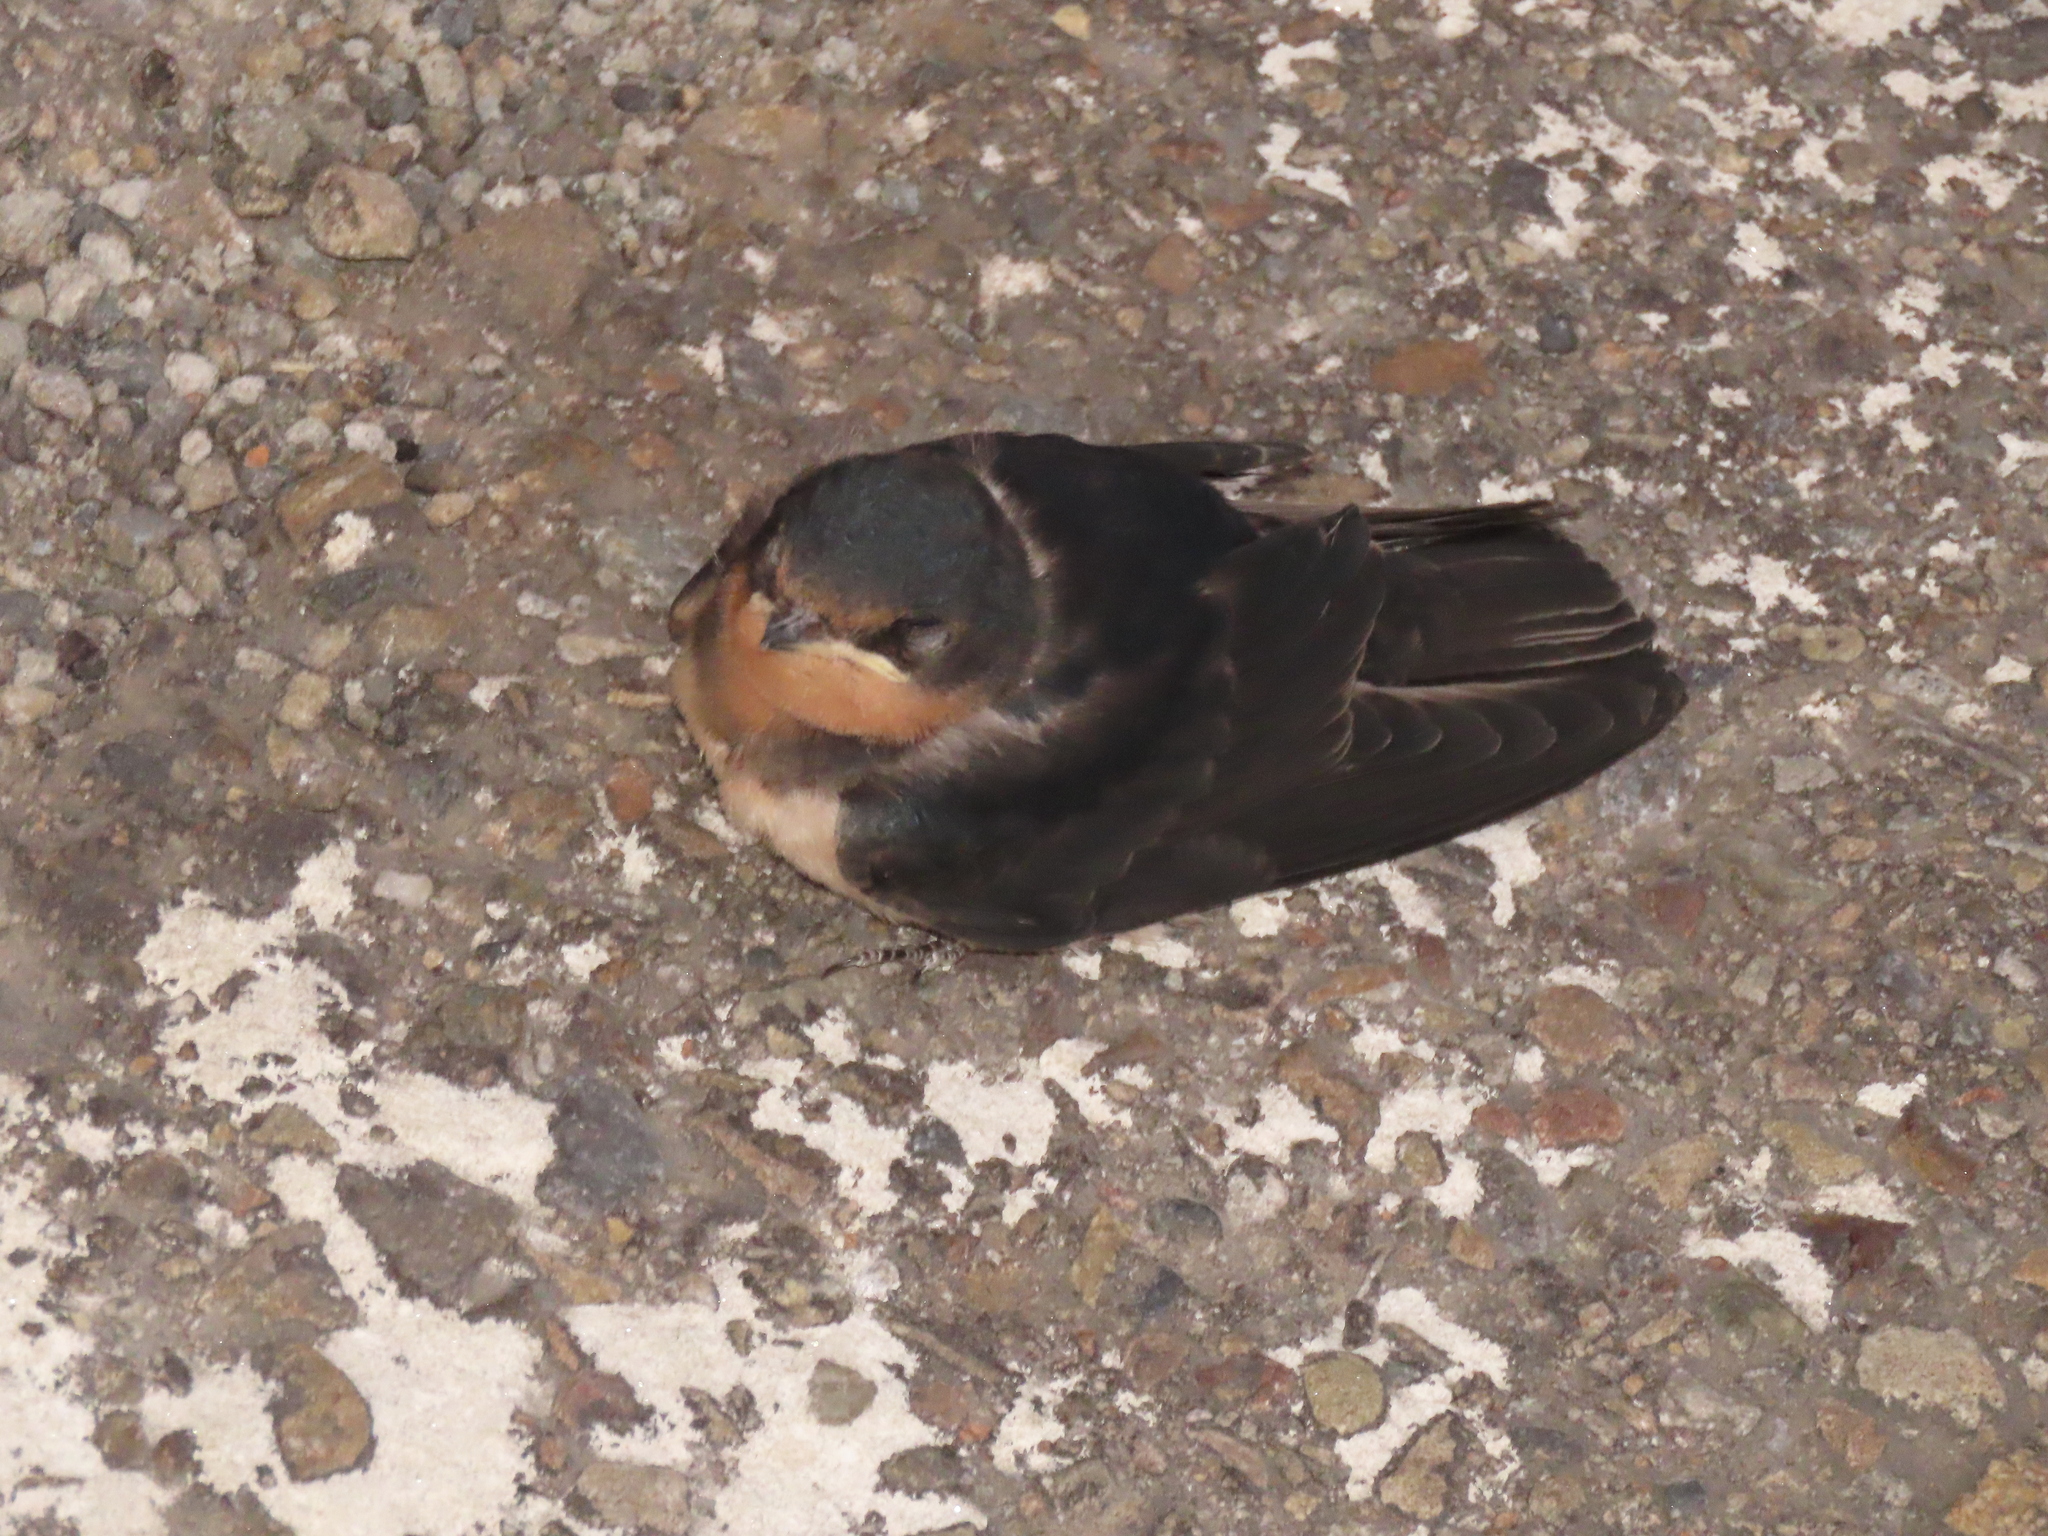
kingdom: Animalia
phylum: Chordata
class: Aves
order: Passeriformes
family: Hirundinidae
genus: Hirundo
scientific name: Hirundo rustica
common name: Barn swallow
